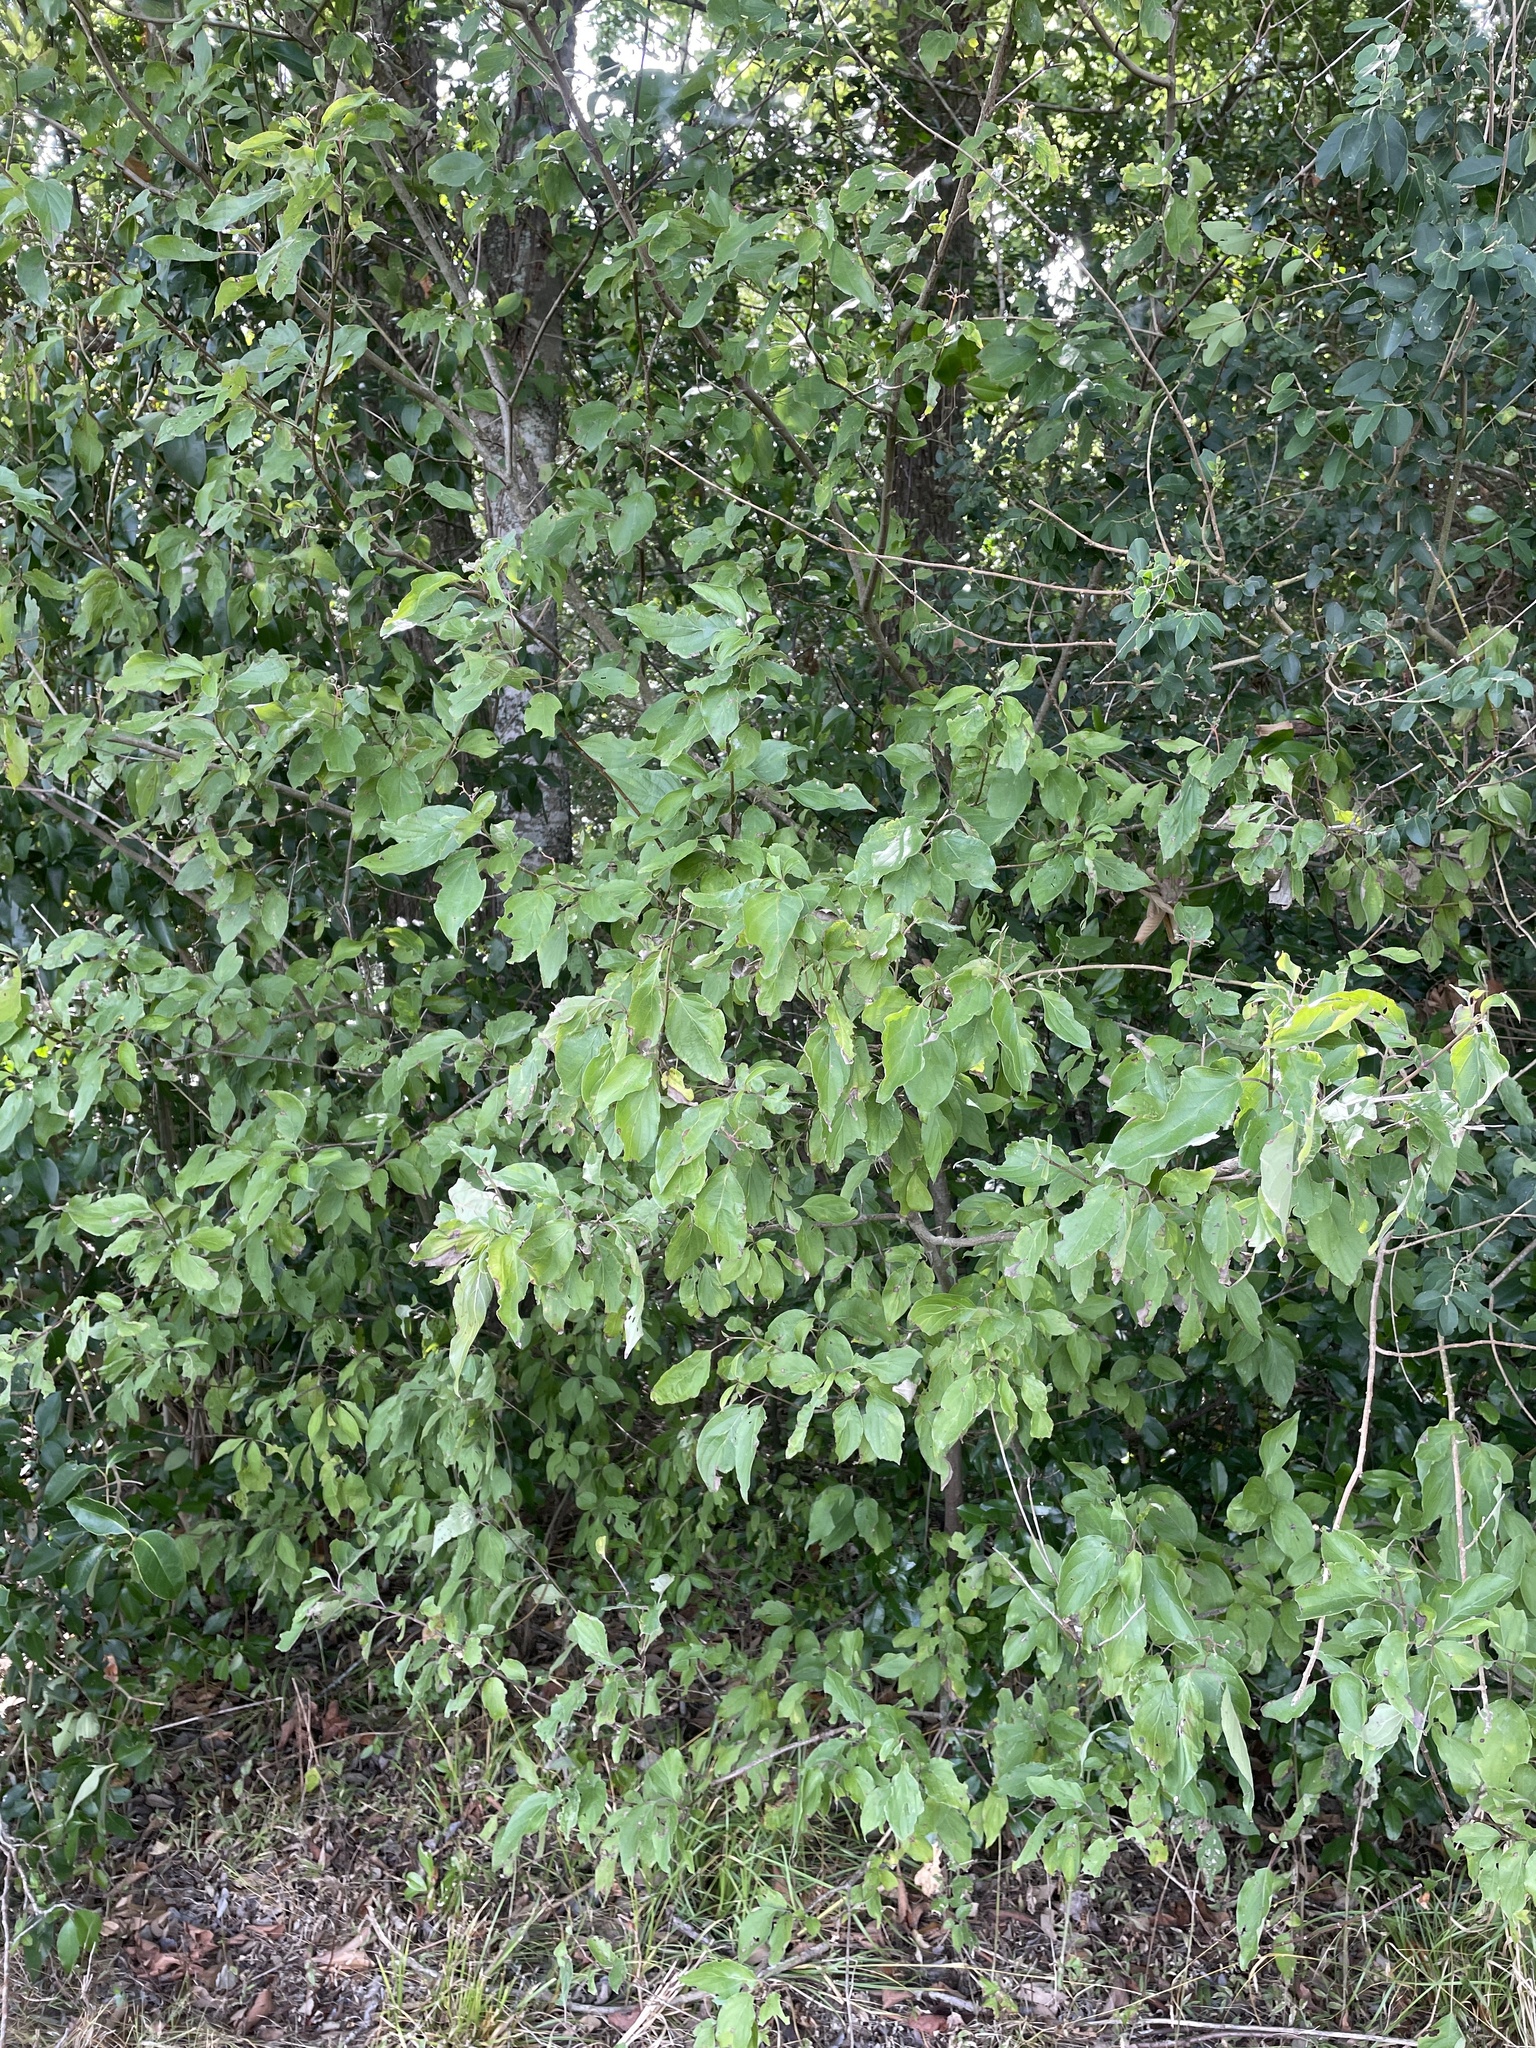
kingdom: Plantae
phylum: Tracheophyta
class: Magnoliopsida
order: Cornales
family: Cornaceae
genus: Cornus
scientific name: Cornus drummondii
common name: Rough-leaf dogwood
